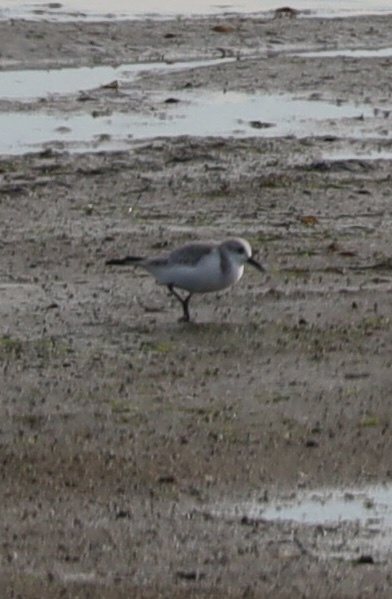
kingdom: Animalia
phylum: Chordata
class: Aves
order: Charadriiformes
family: Scolopacidae
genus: Calidris
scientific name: Calidris alba
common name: Sanderling
